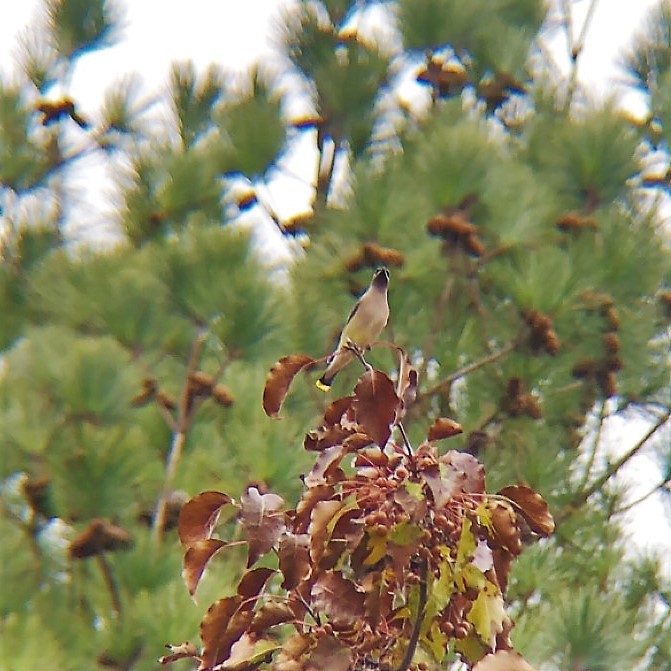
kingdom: Animalia
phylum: Chordata
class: Aves
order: Passeriformes
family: Bombycillidae
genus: Bombycilla
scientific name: Bombycilla cedrorum
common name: Cedar waxwing
